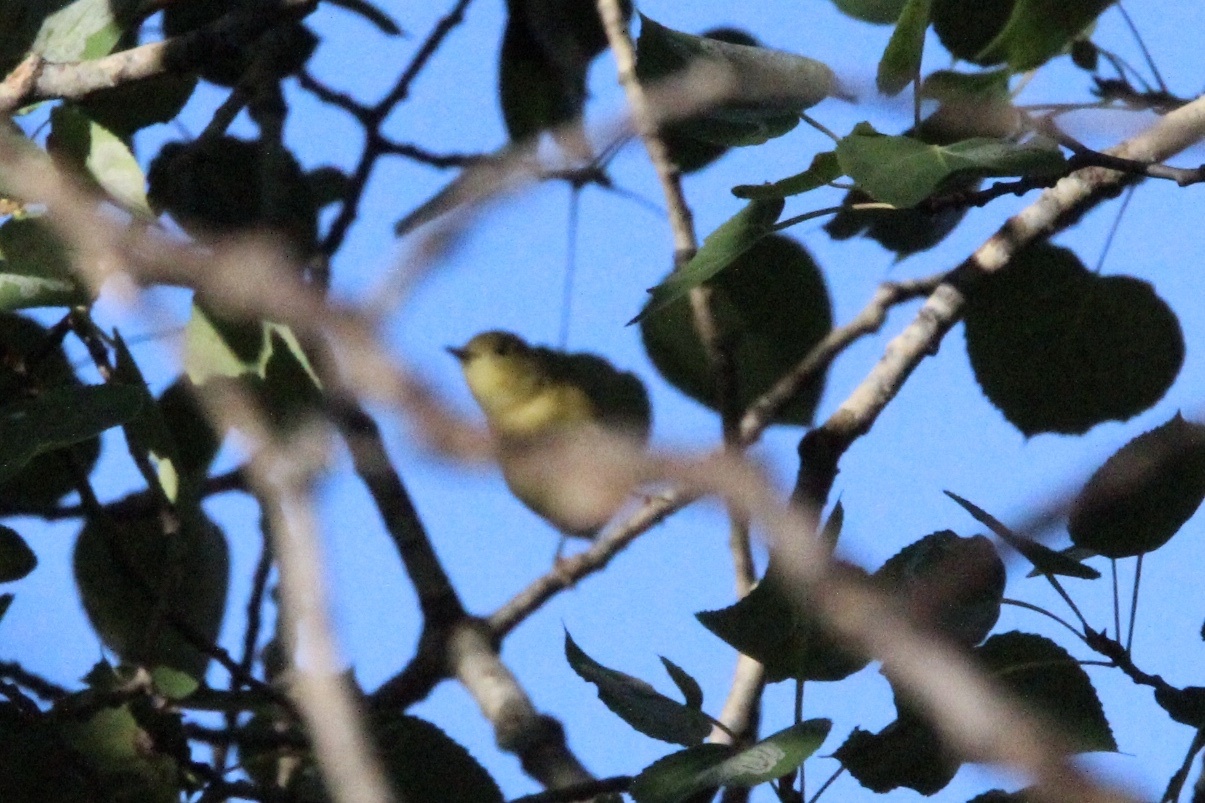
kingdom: Animalia
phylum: Chordata
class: Aves
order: Passeriformes
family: Parulidae
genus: Setophaga
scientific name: Setophaga petechia
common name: Yellow warbler
